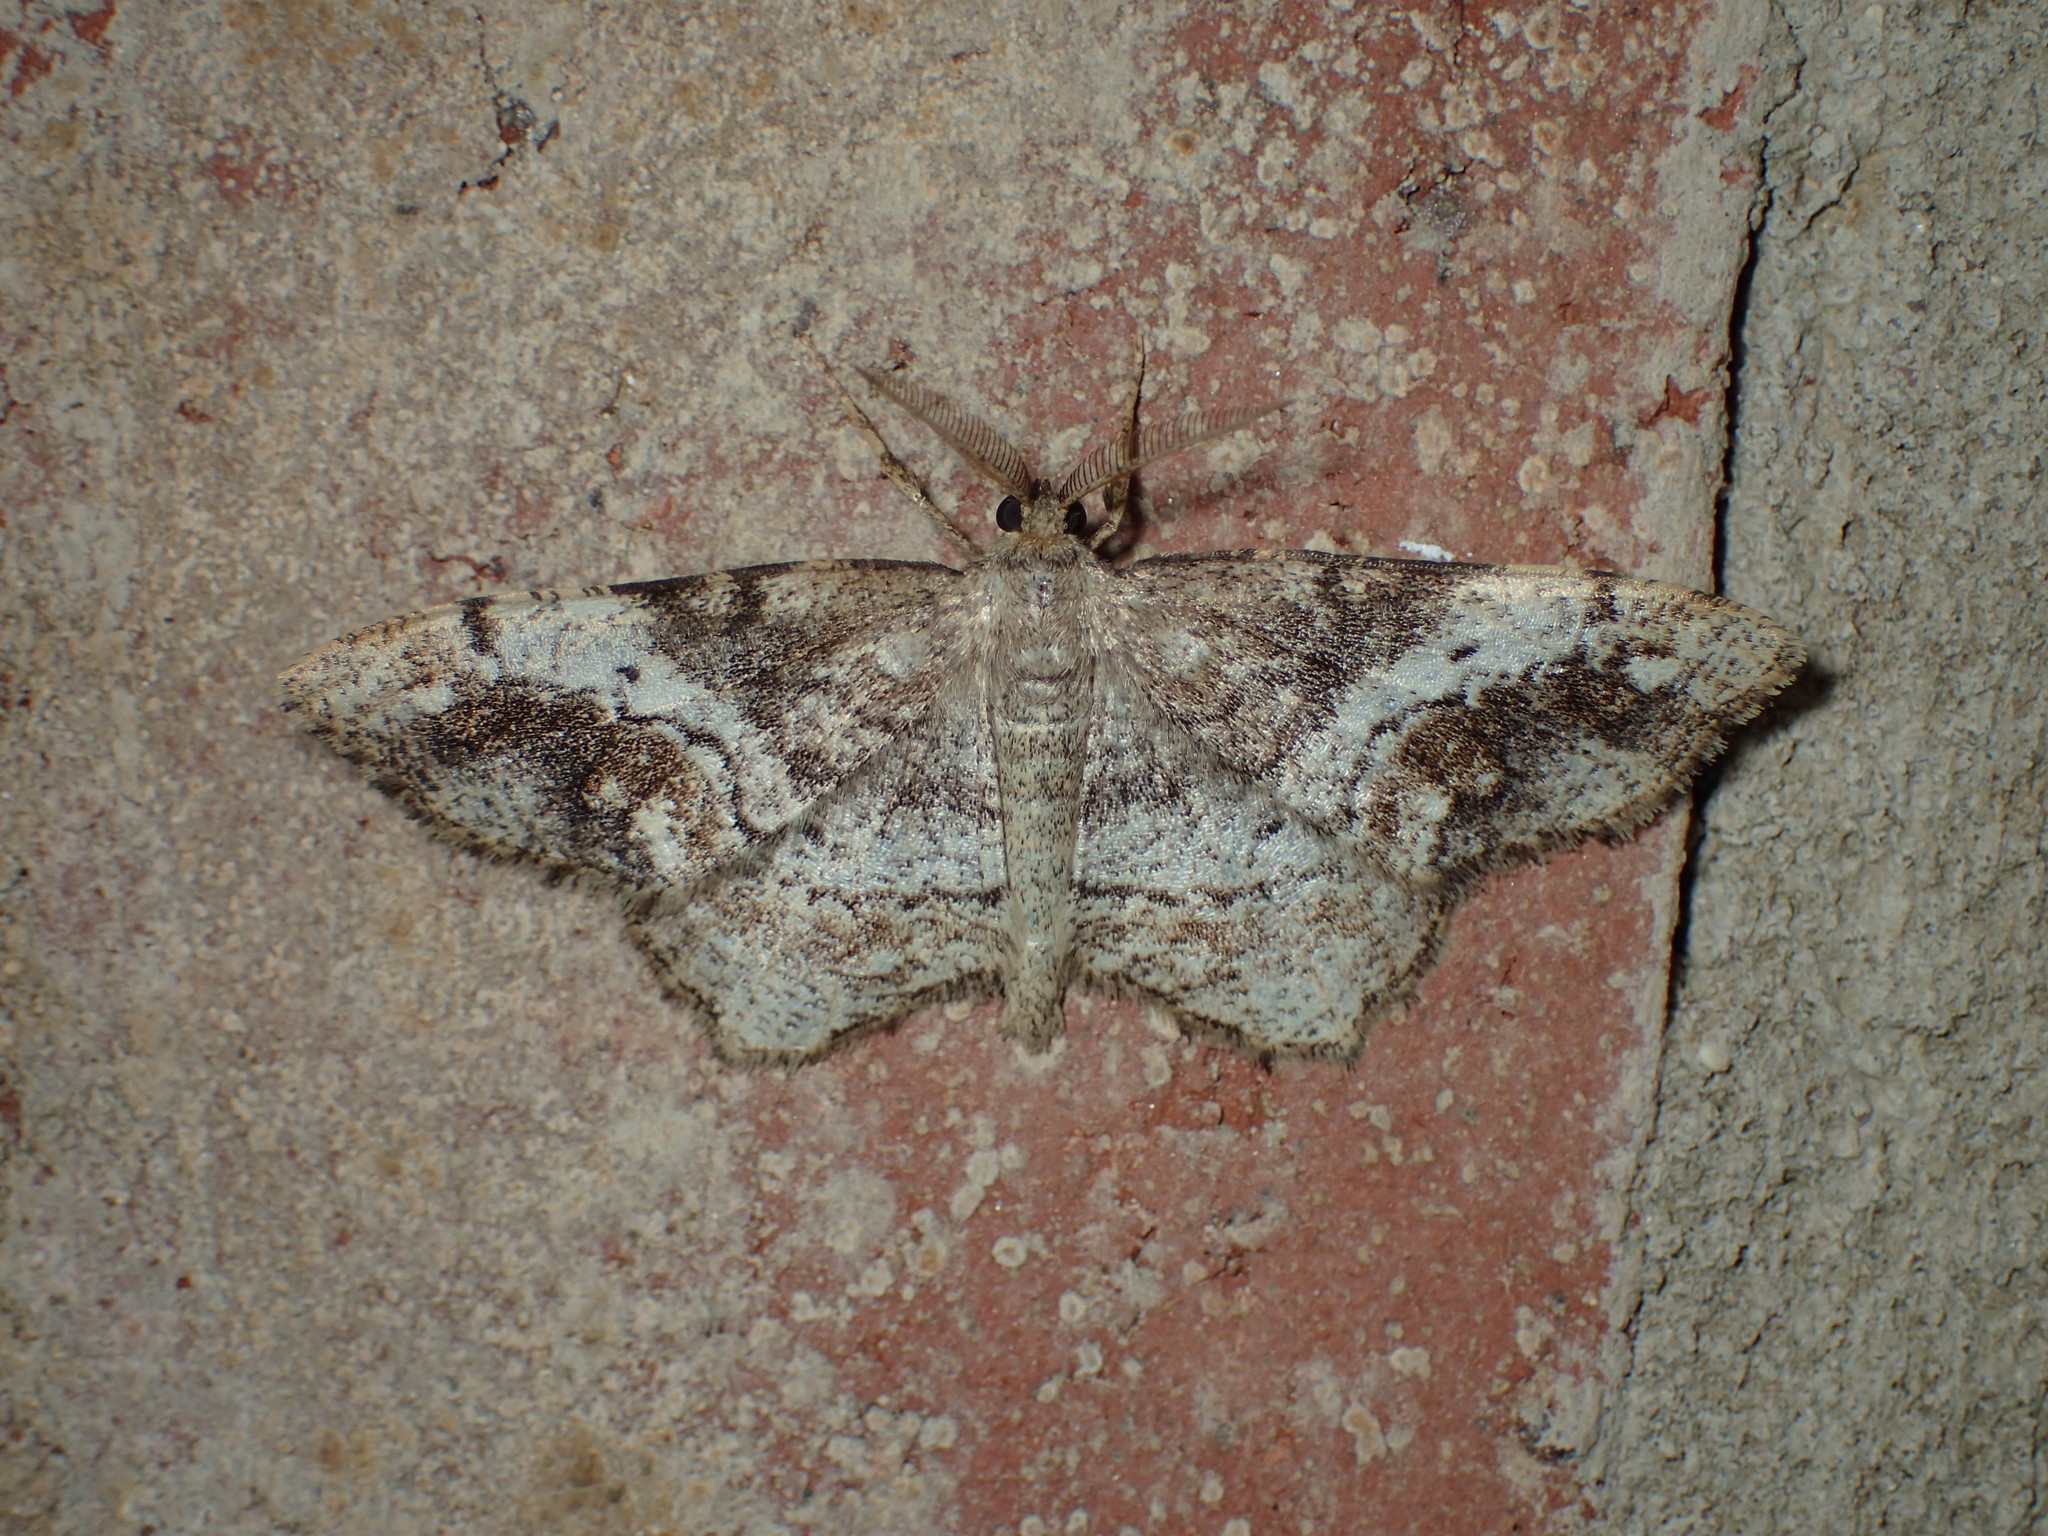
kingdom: Animalia
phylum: Arthropoda
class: Insecta
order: Lepidoptera
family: Geometridae
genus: Hypagyrtis
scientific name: Hypagyrtis unipunctata
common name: One-spotted variant
